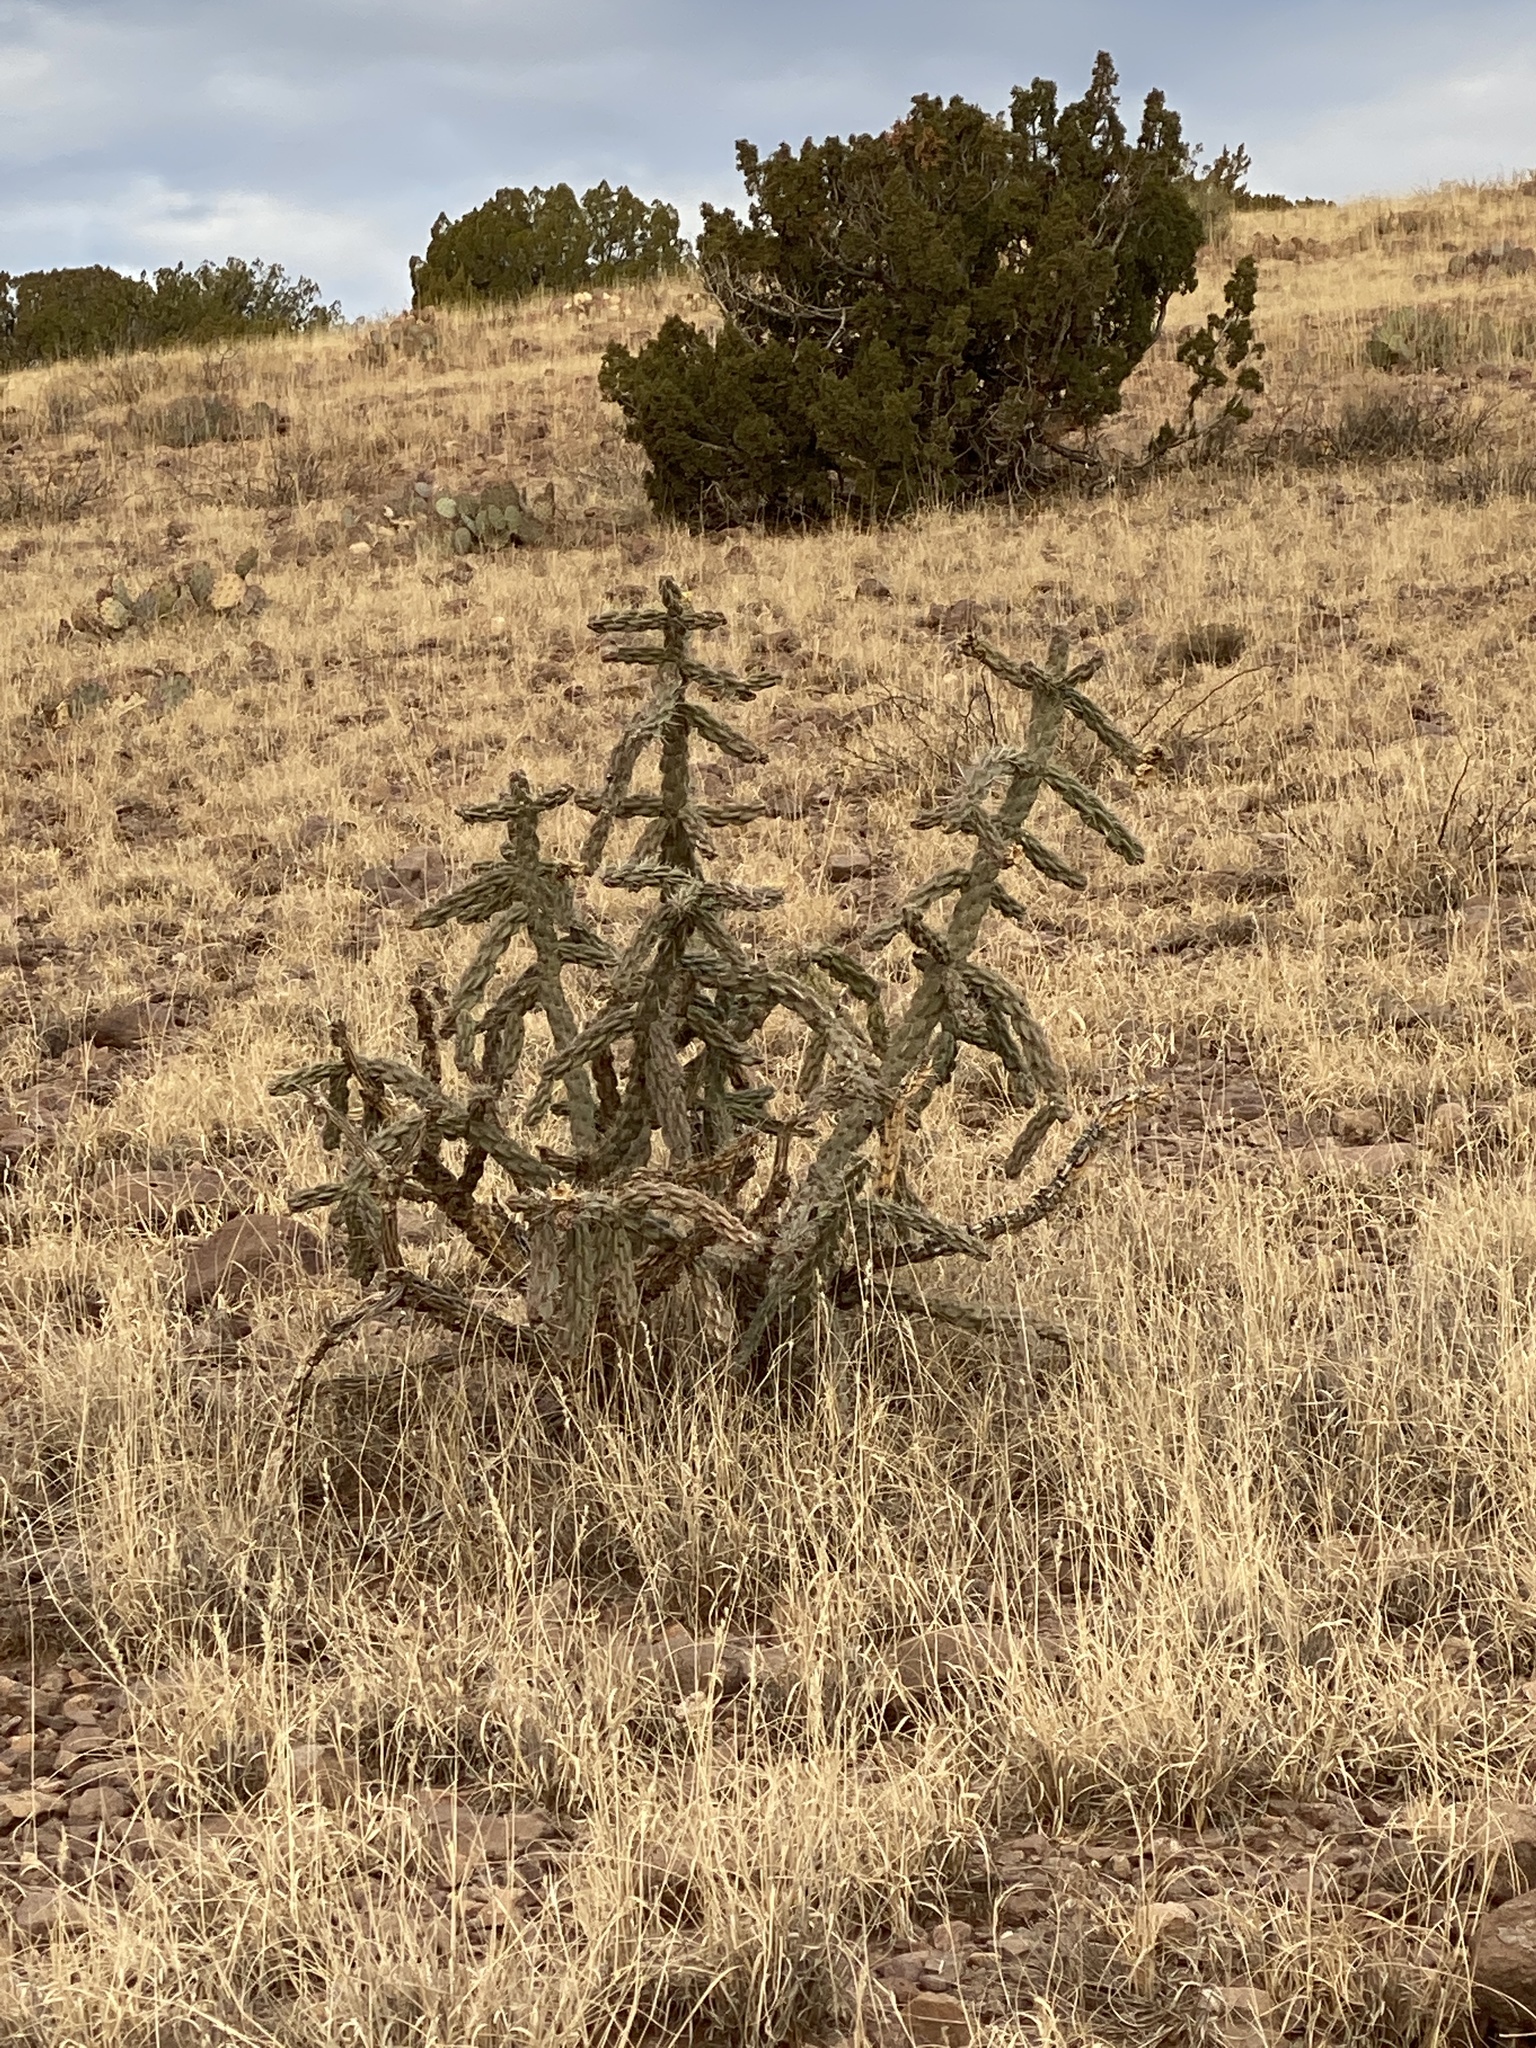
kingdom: Plantae
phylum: Tracheophyta
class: Magnoliopsida
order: Caryophyllales
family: Cactaceae
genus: Cylindropuntia
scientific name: Cylindropuntia imbricata
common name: Candelabrum cactus
